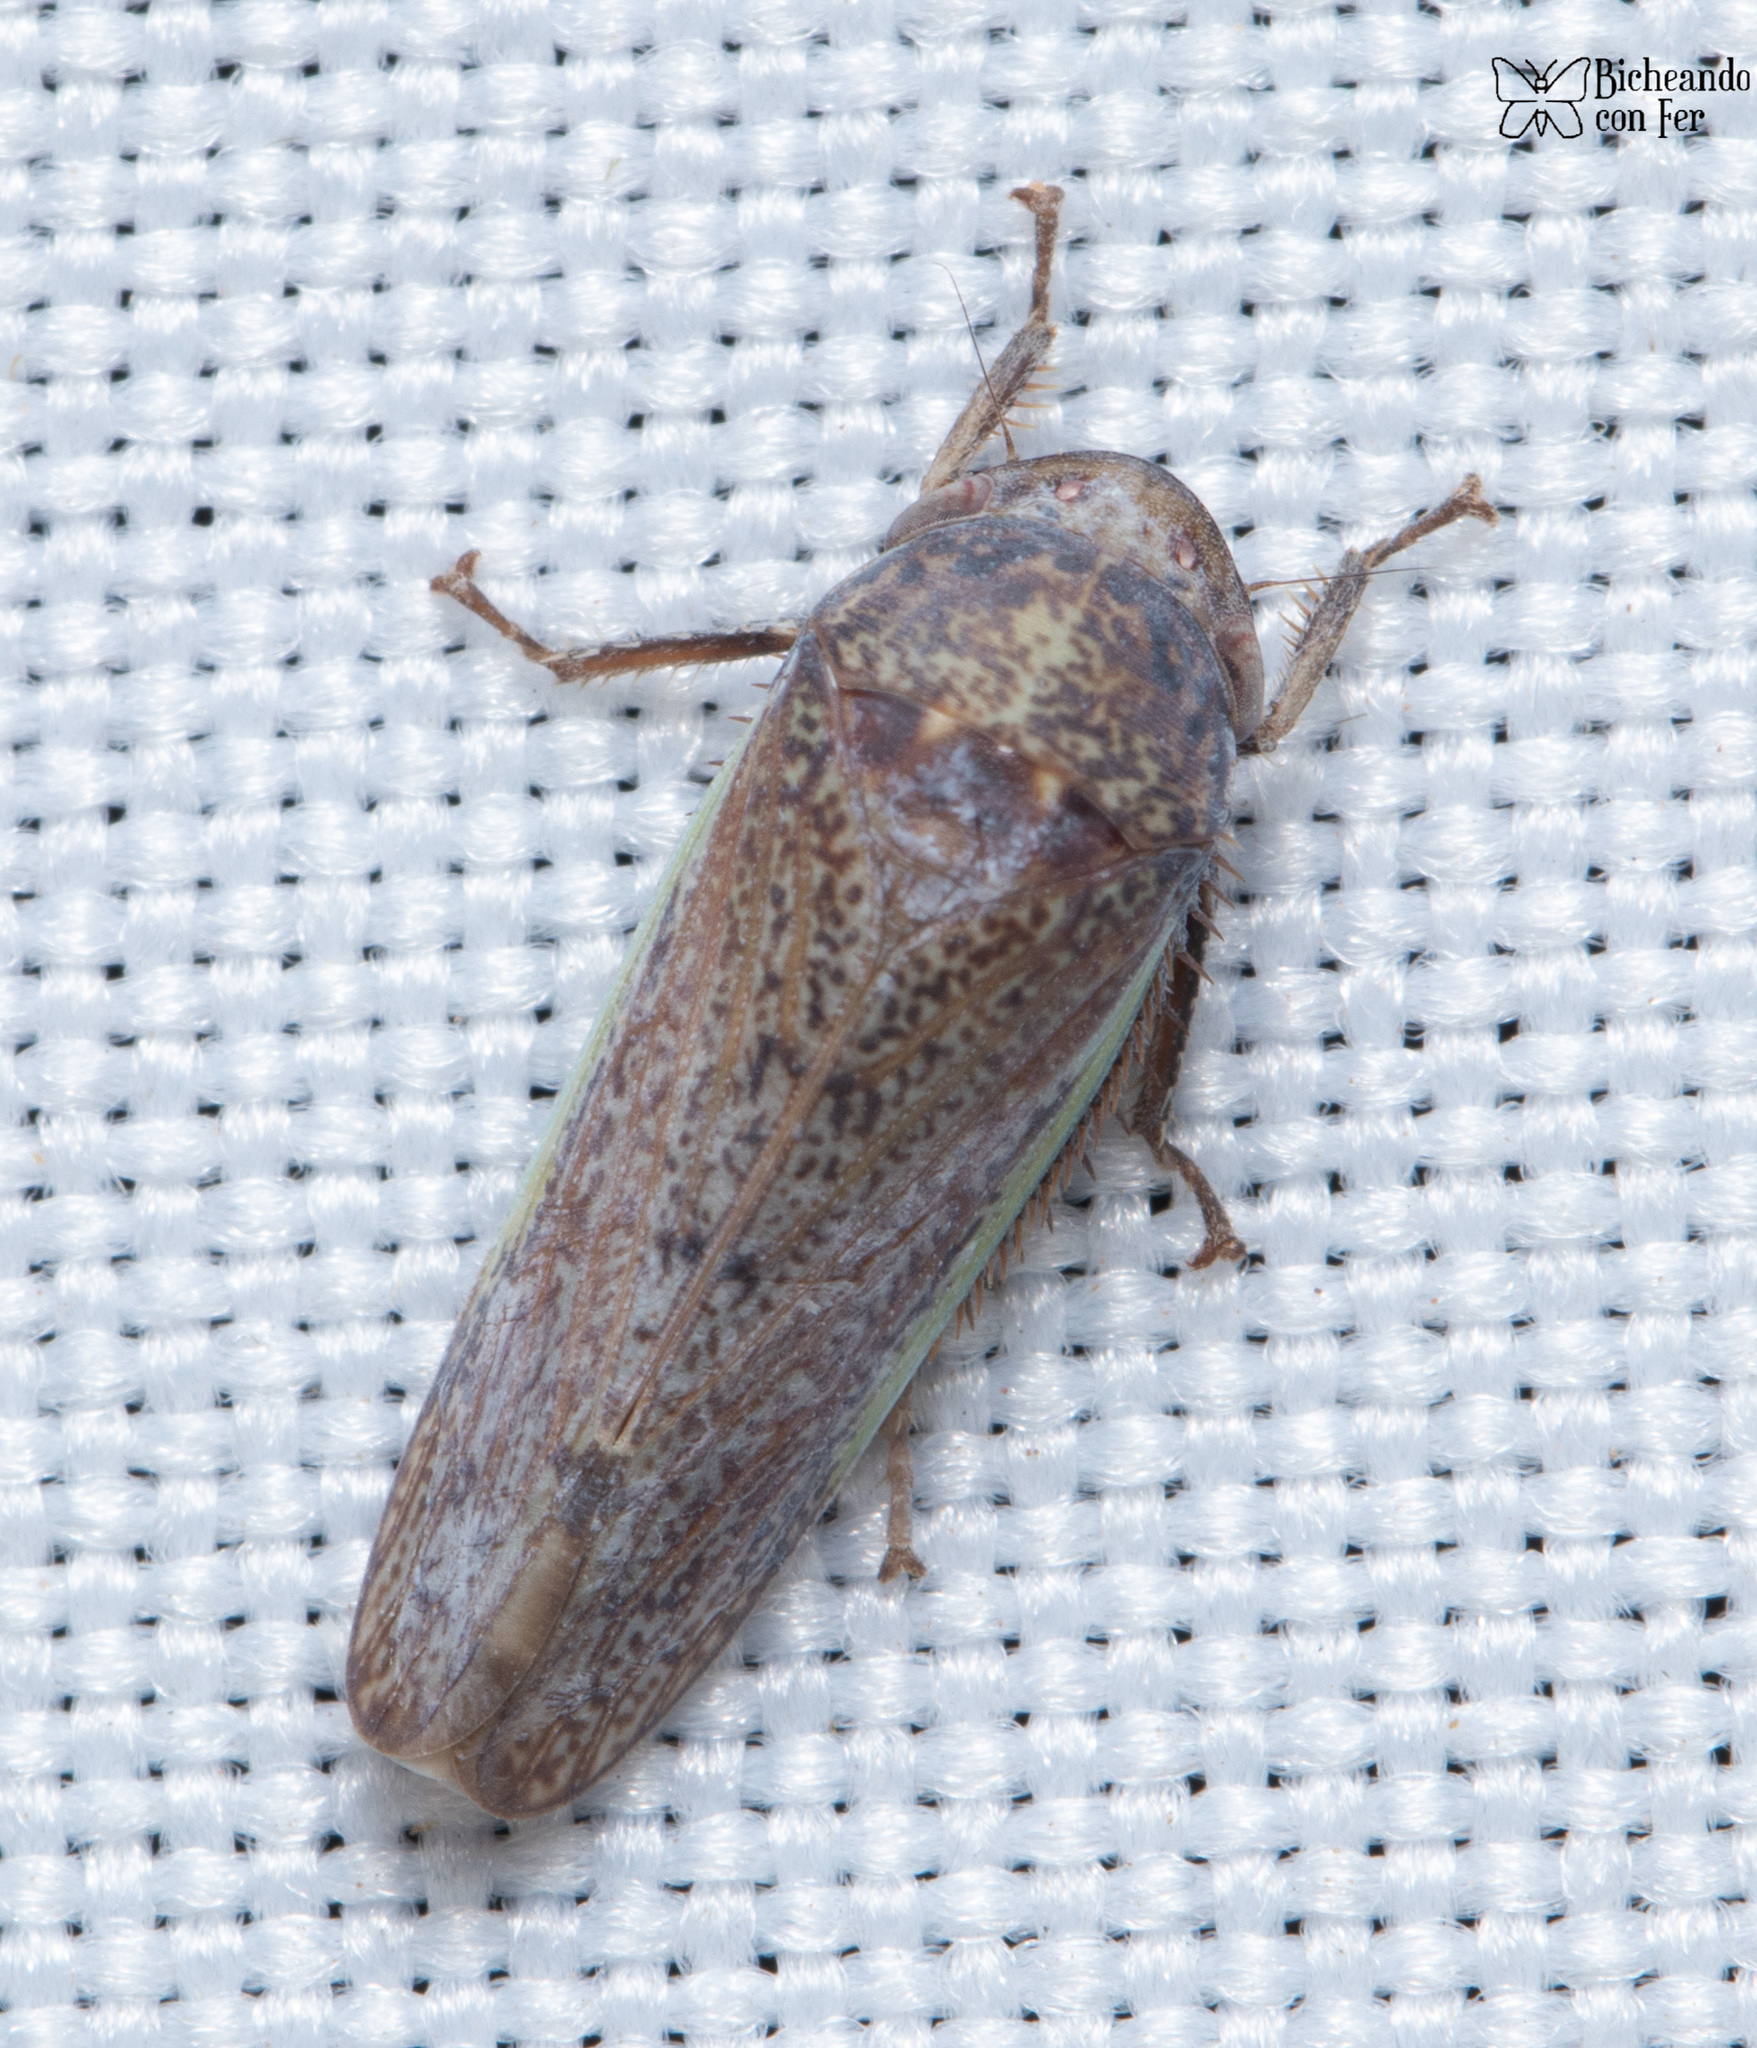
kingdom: Animalia
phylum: Arthropoda
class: Insecta
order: Hemiptera
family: Cicadellidae
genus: Hamana
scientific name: Hamana gelbata
